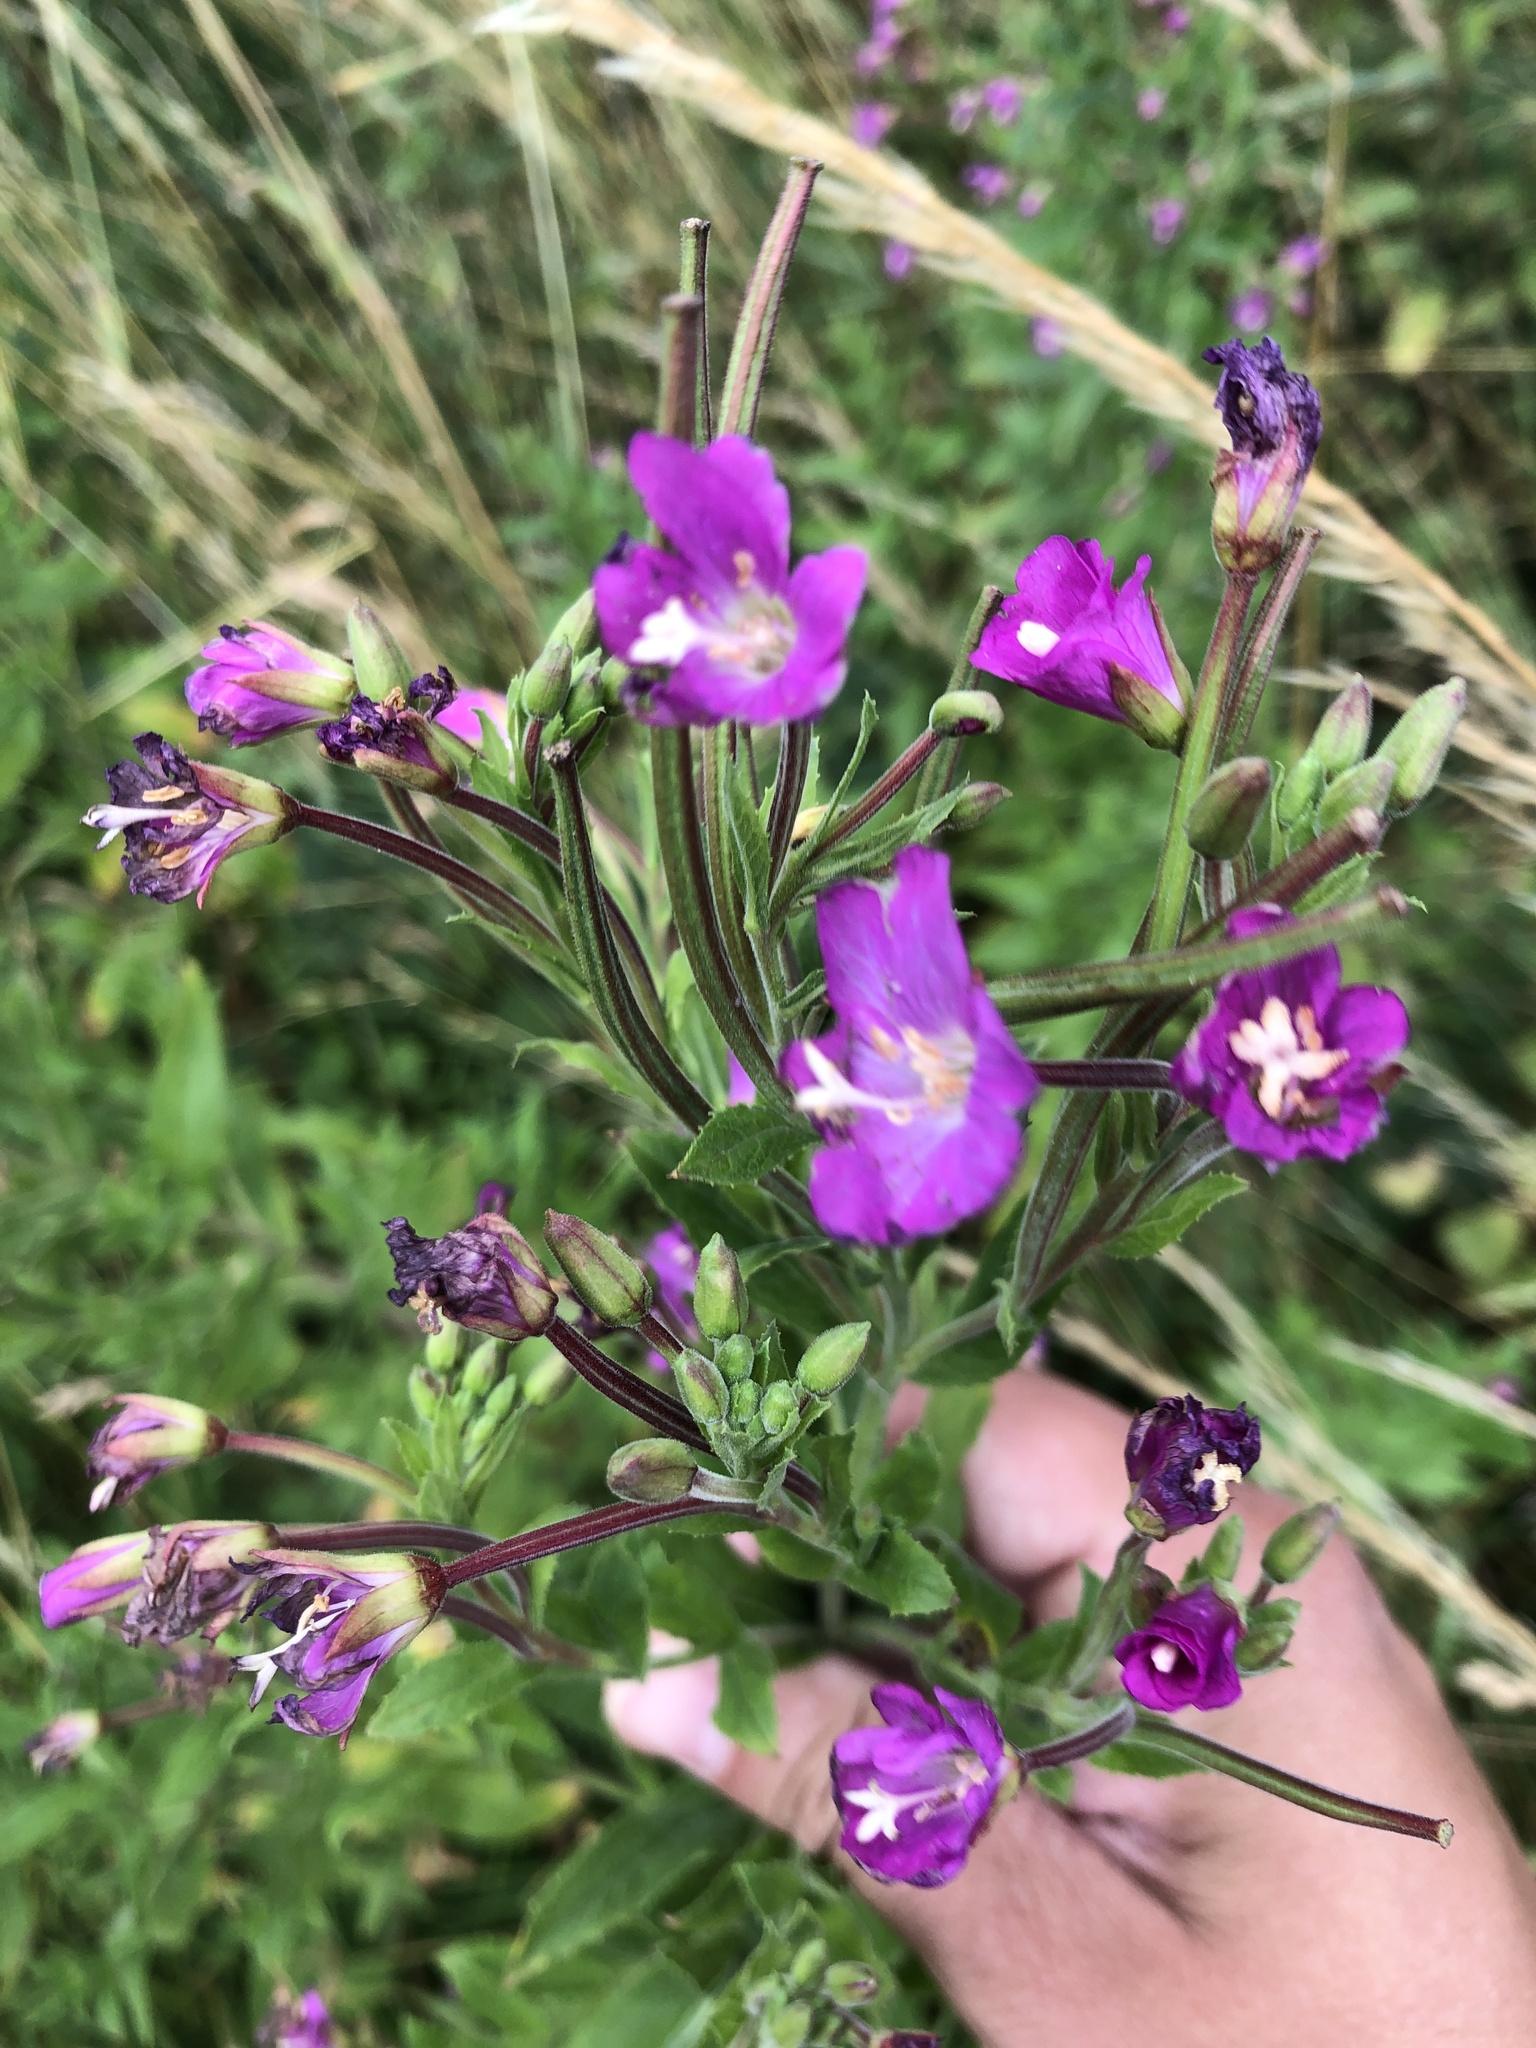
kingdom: Plantae
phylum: Tracheophyta
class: Magnoliopsida
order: Myrtales
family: Onagraceae
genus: Epilobium
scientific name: Epilobium hirsutum
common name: Great willowherb
